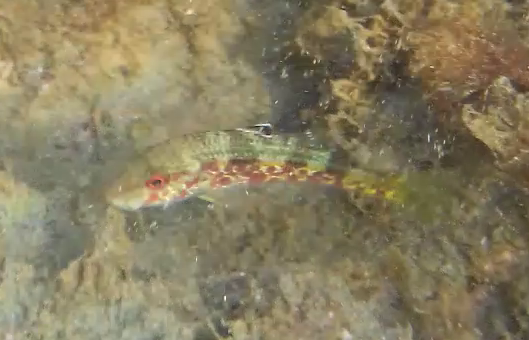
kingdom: Animalia
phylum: Chordata
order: Perciformes
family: Mullidae
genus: Mullus
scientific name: Mullus surmuletus
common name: Red mullet
